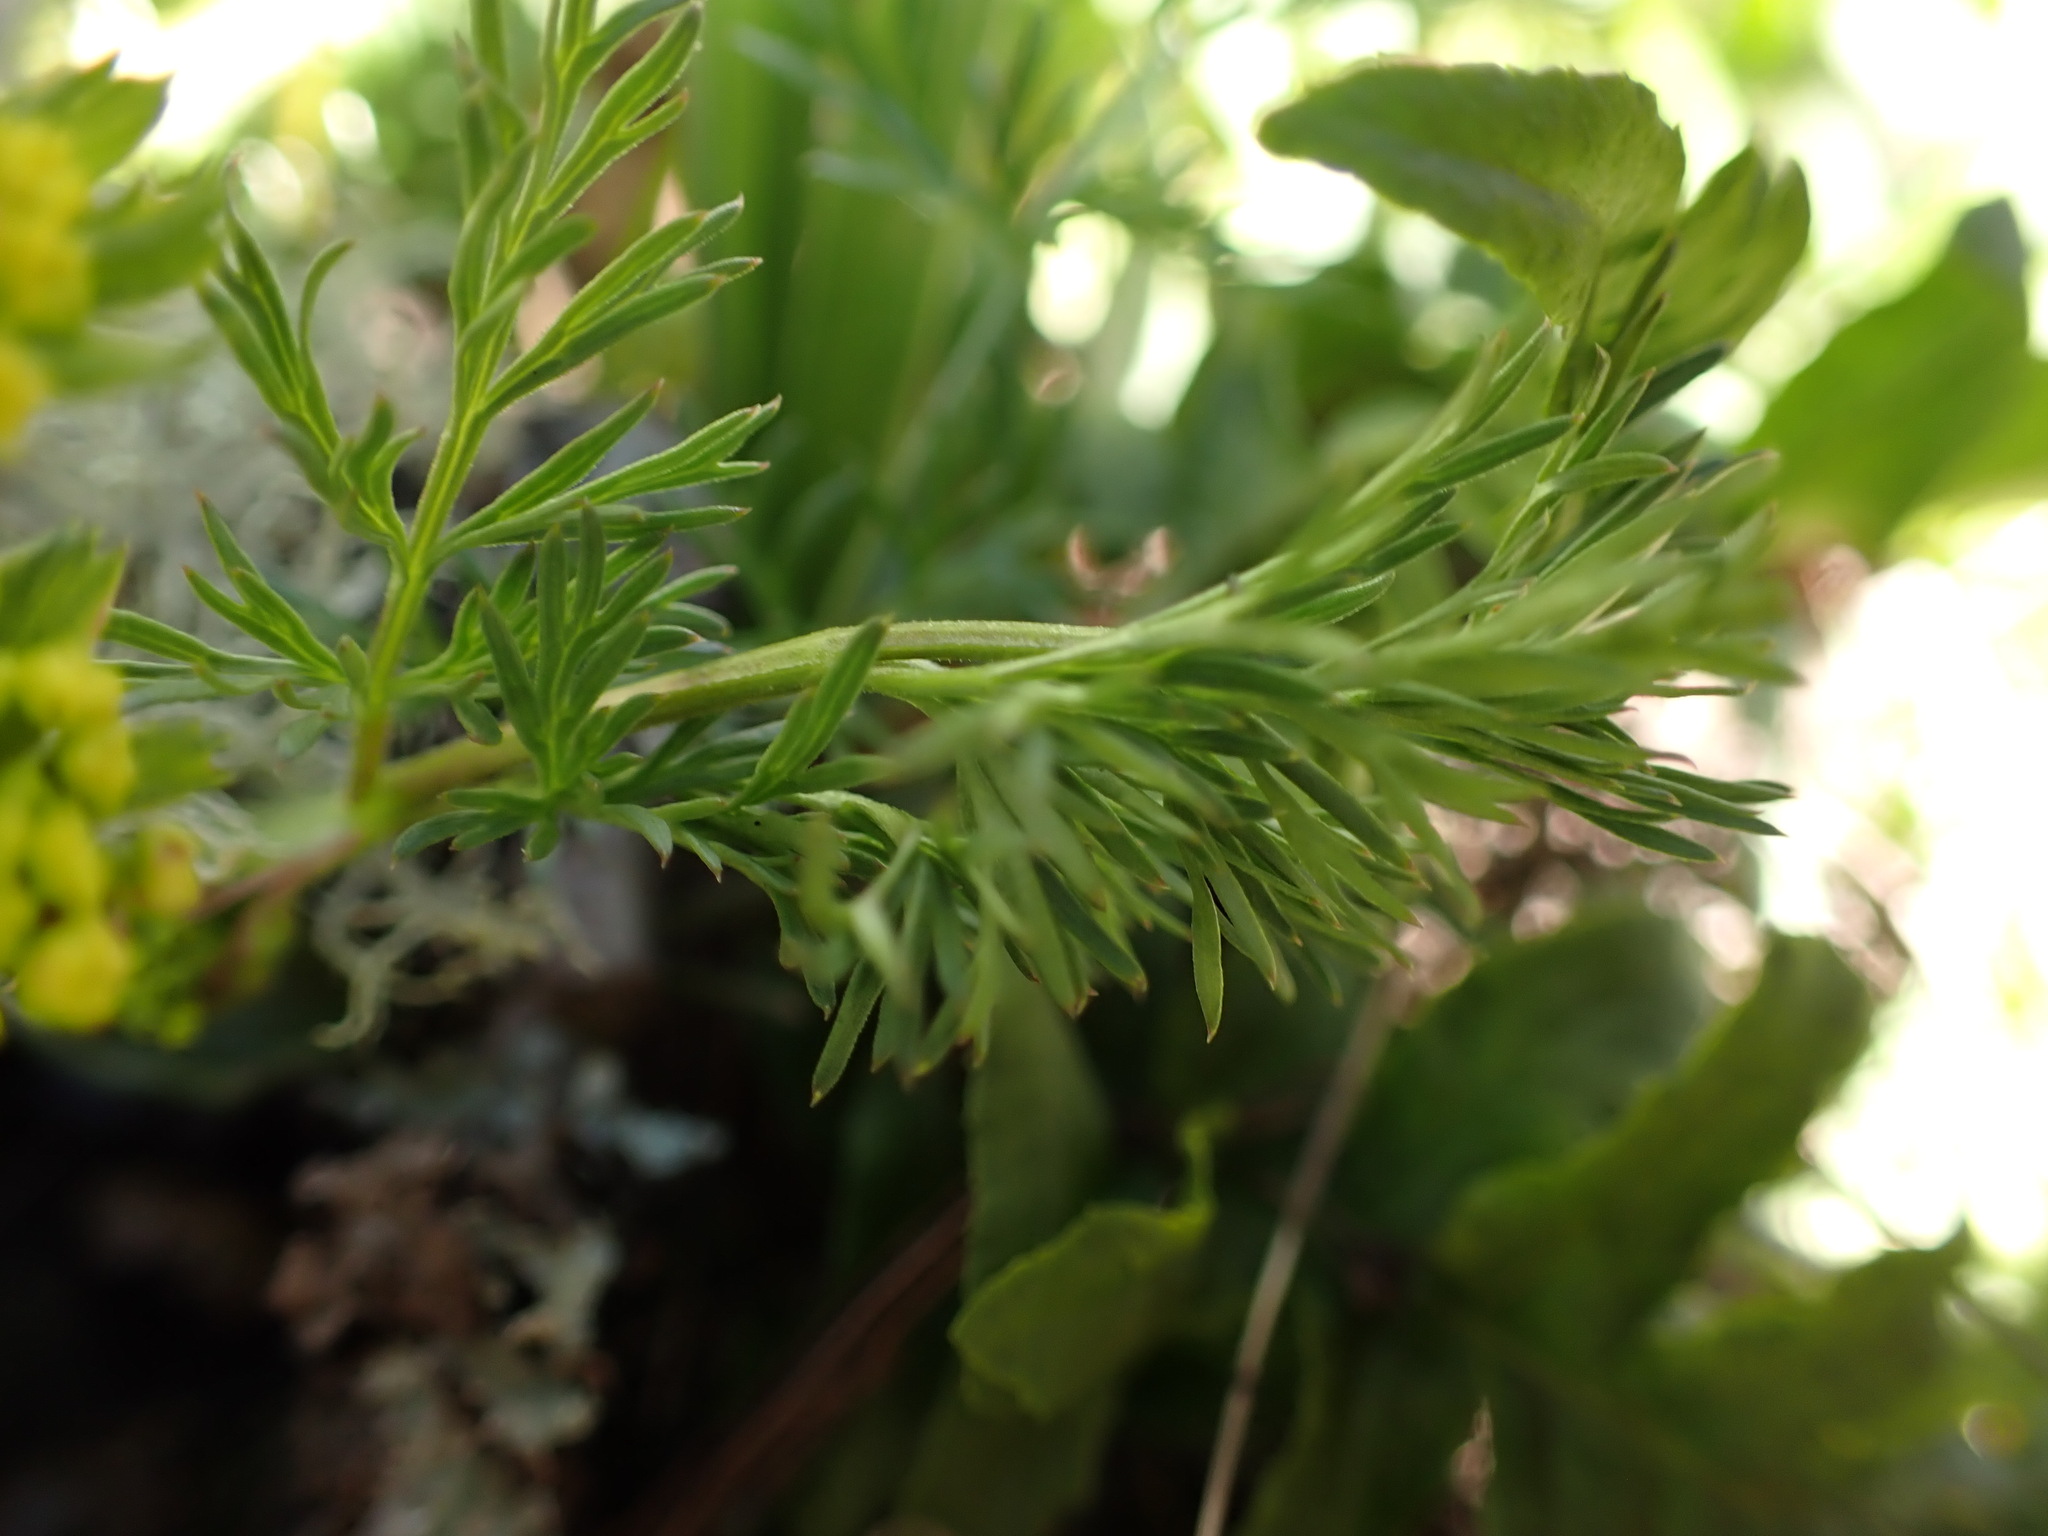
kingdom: Plantae
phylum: Tracheophyta
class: Magnoliopsida
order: Apiales
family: Apiaceae
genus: Lomatium
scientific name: Lomatium utriculatum
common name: Fine-leaf desert-parsley
